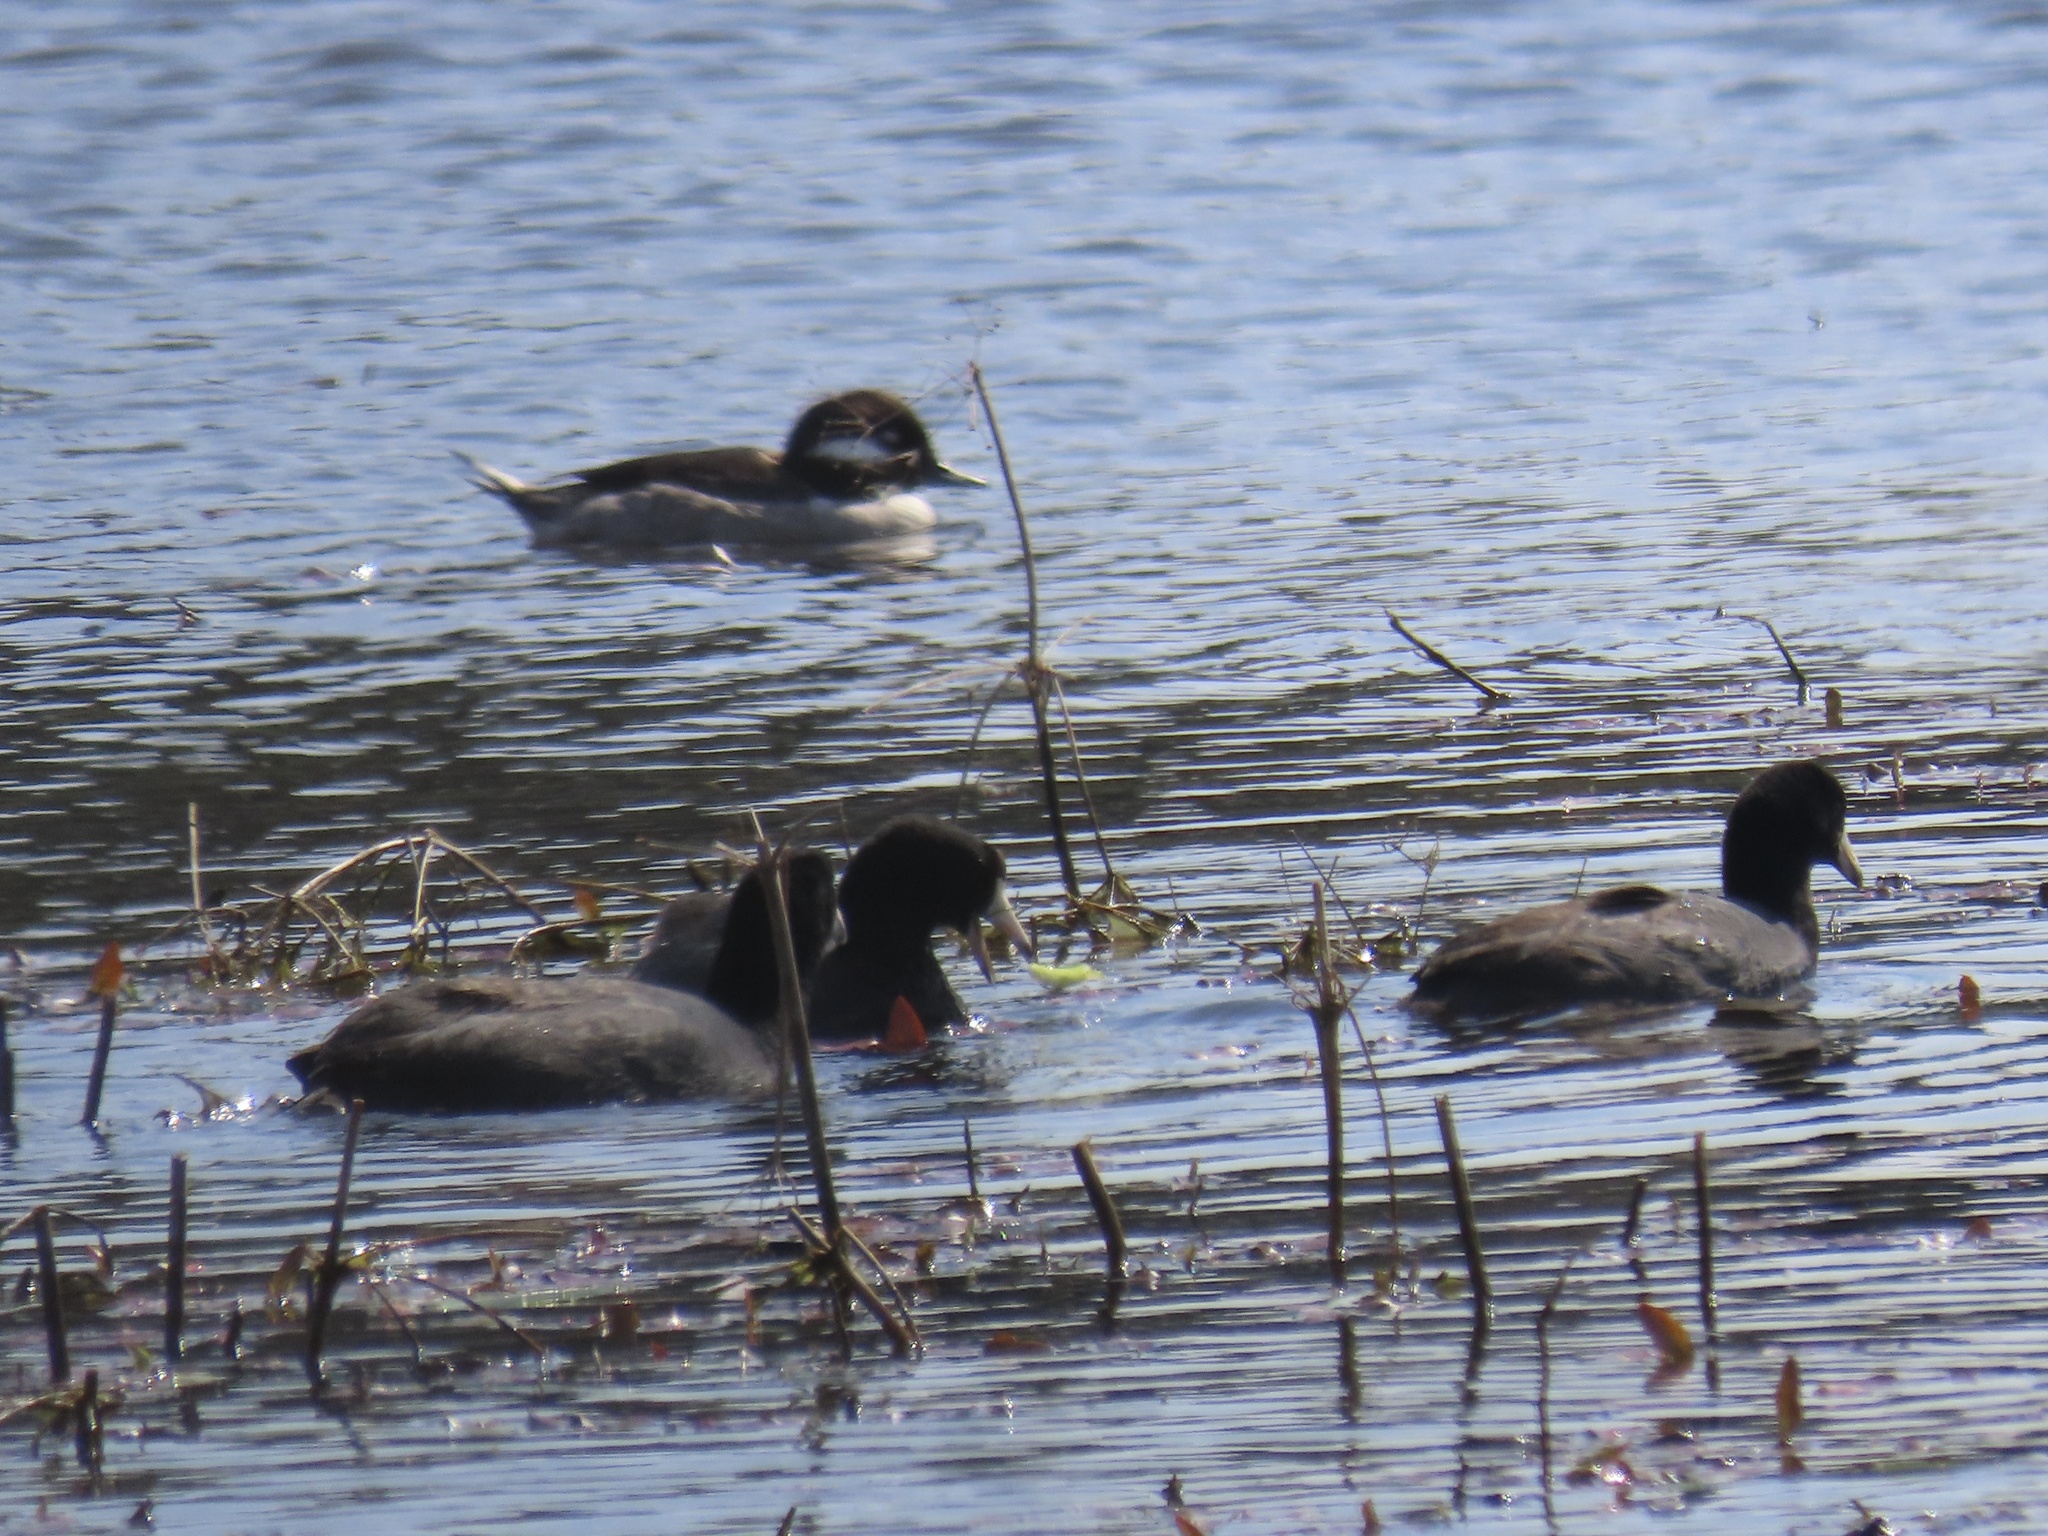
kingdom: Animalia
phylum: Chordata
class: Aves
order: Gruiformes
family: Rallidae
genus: Fulica
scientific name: Fulica americana
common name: American coot
